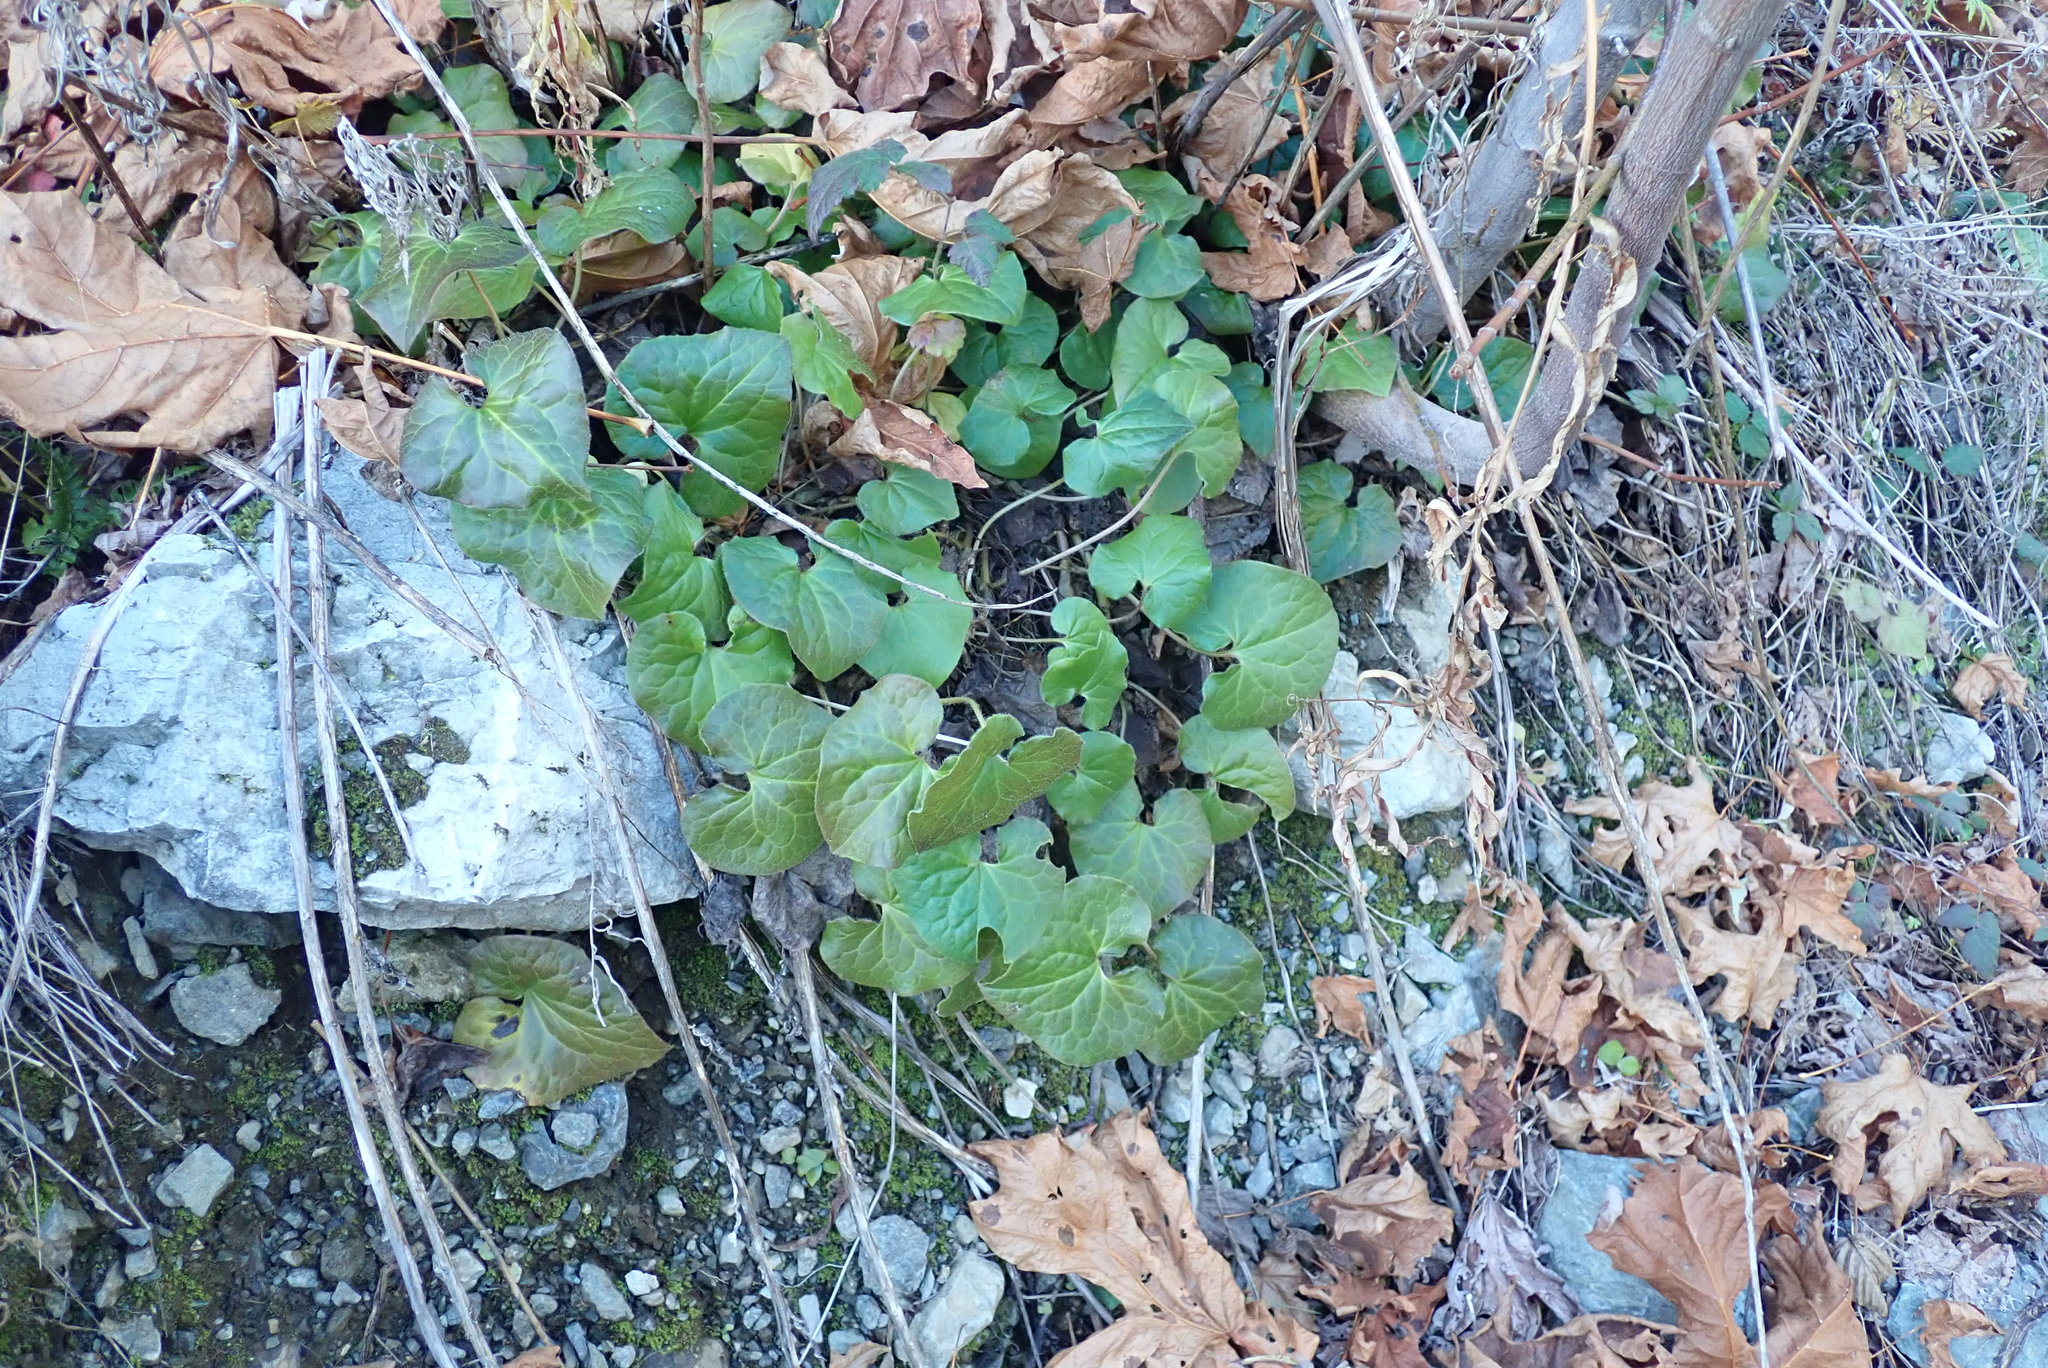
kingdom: Plantae
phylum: Tracheophyta
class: Magnoliopsida
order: Piperales
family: Aristolochiaceae
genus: Asarum
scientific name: Asarum caudatum
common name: Wild ginger
